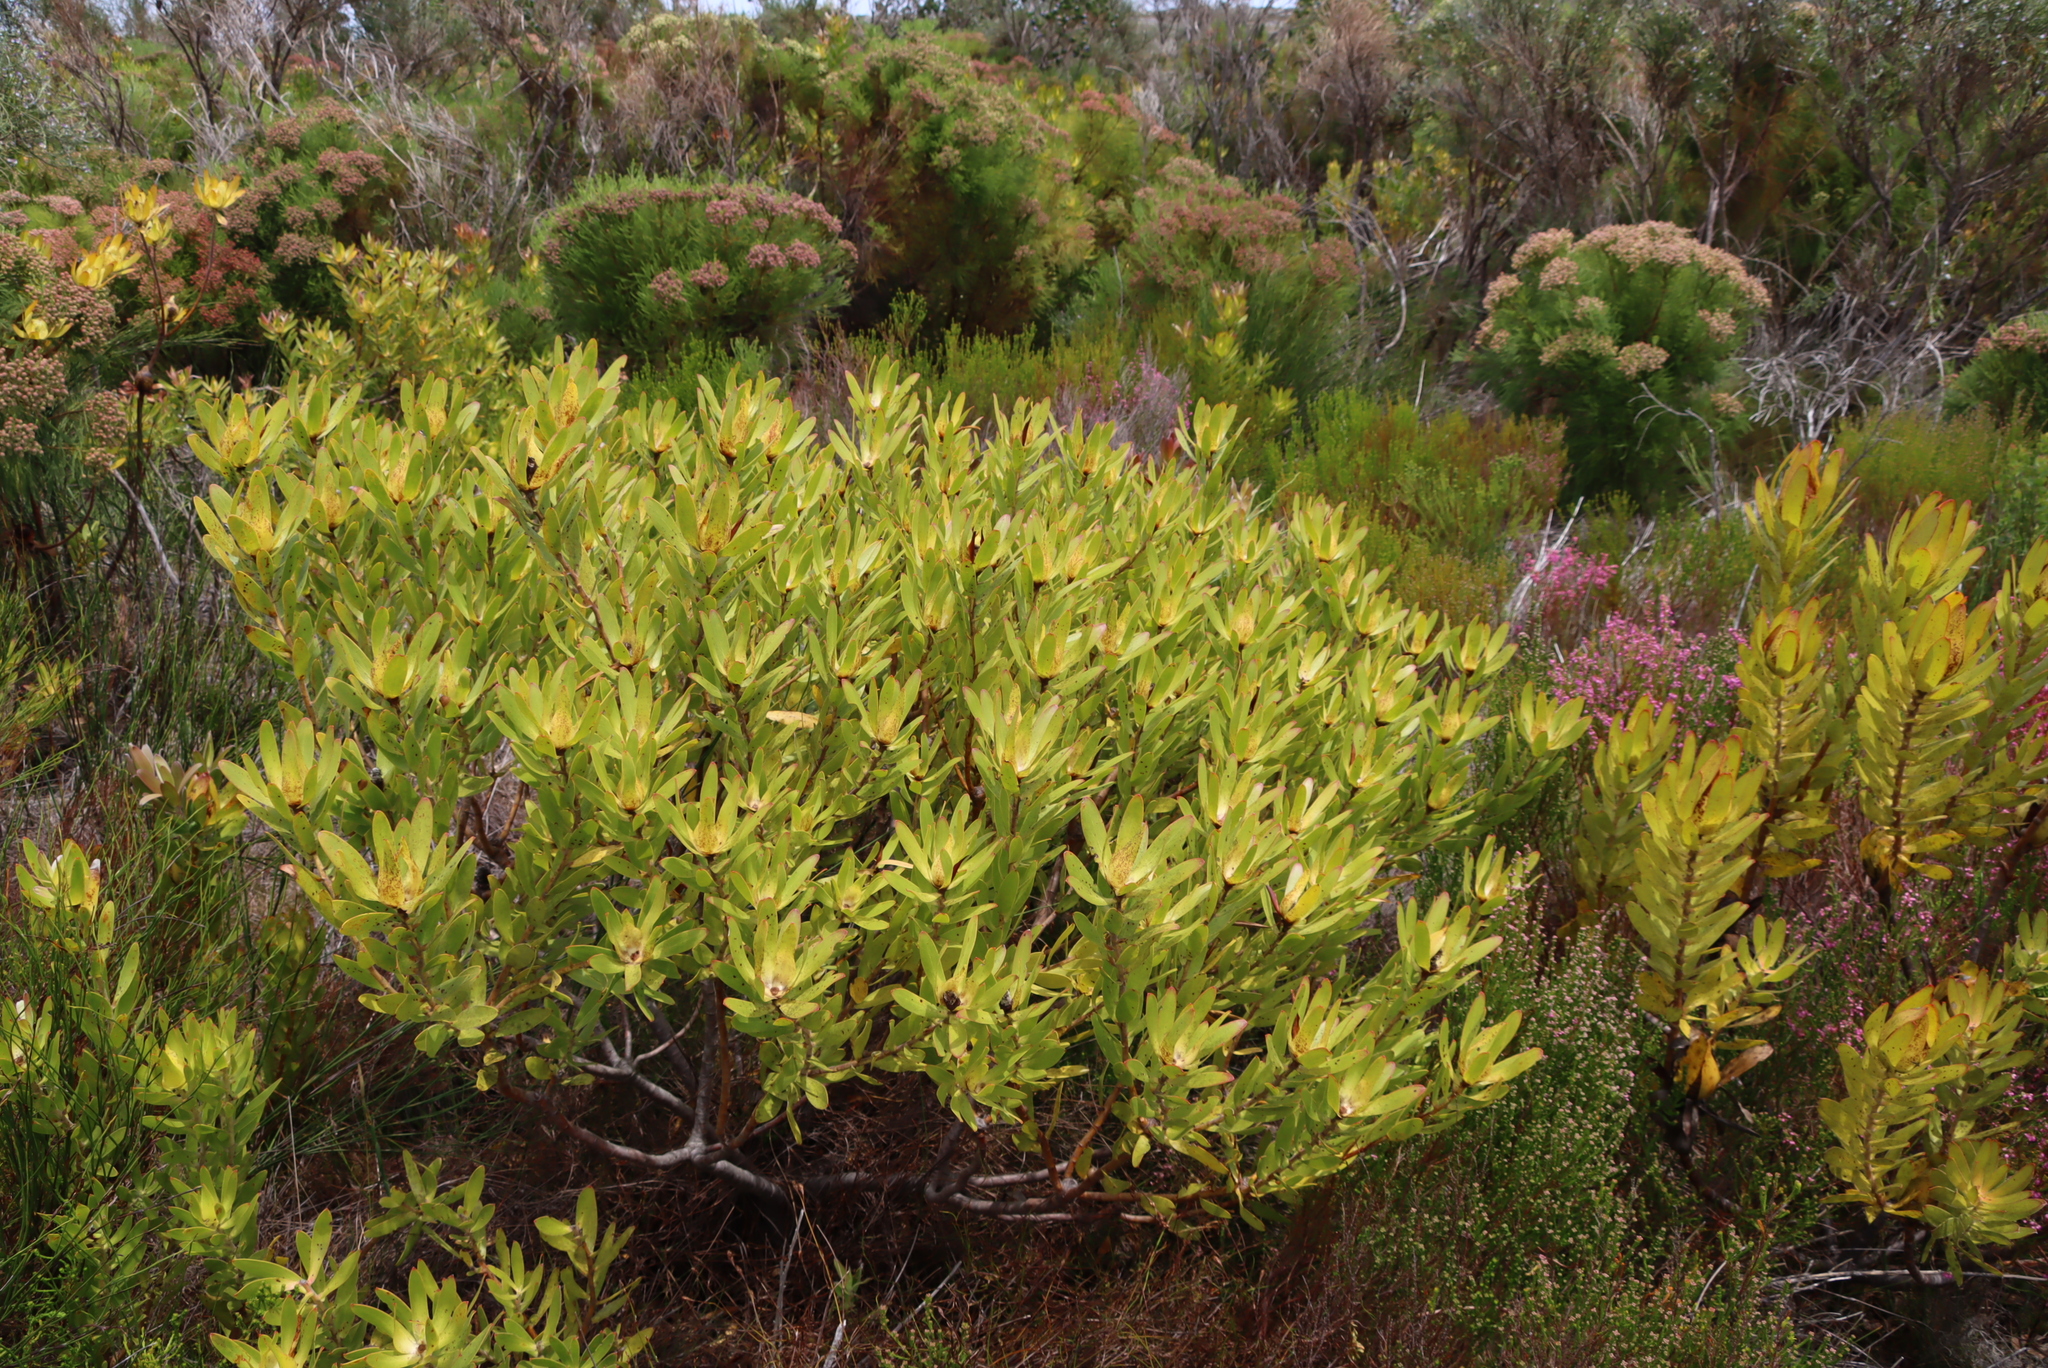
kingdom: Plantae
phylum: Tracheophyta
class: Magnoliopsida
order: Proteales
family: Proteaceae
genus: Leucadendron
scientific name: Leucadendron laureolum
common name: Golden sunshinebush
